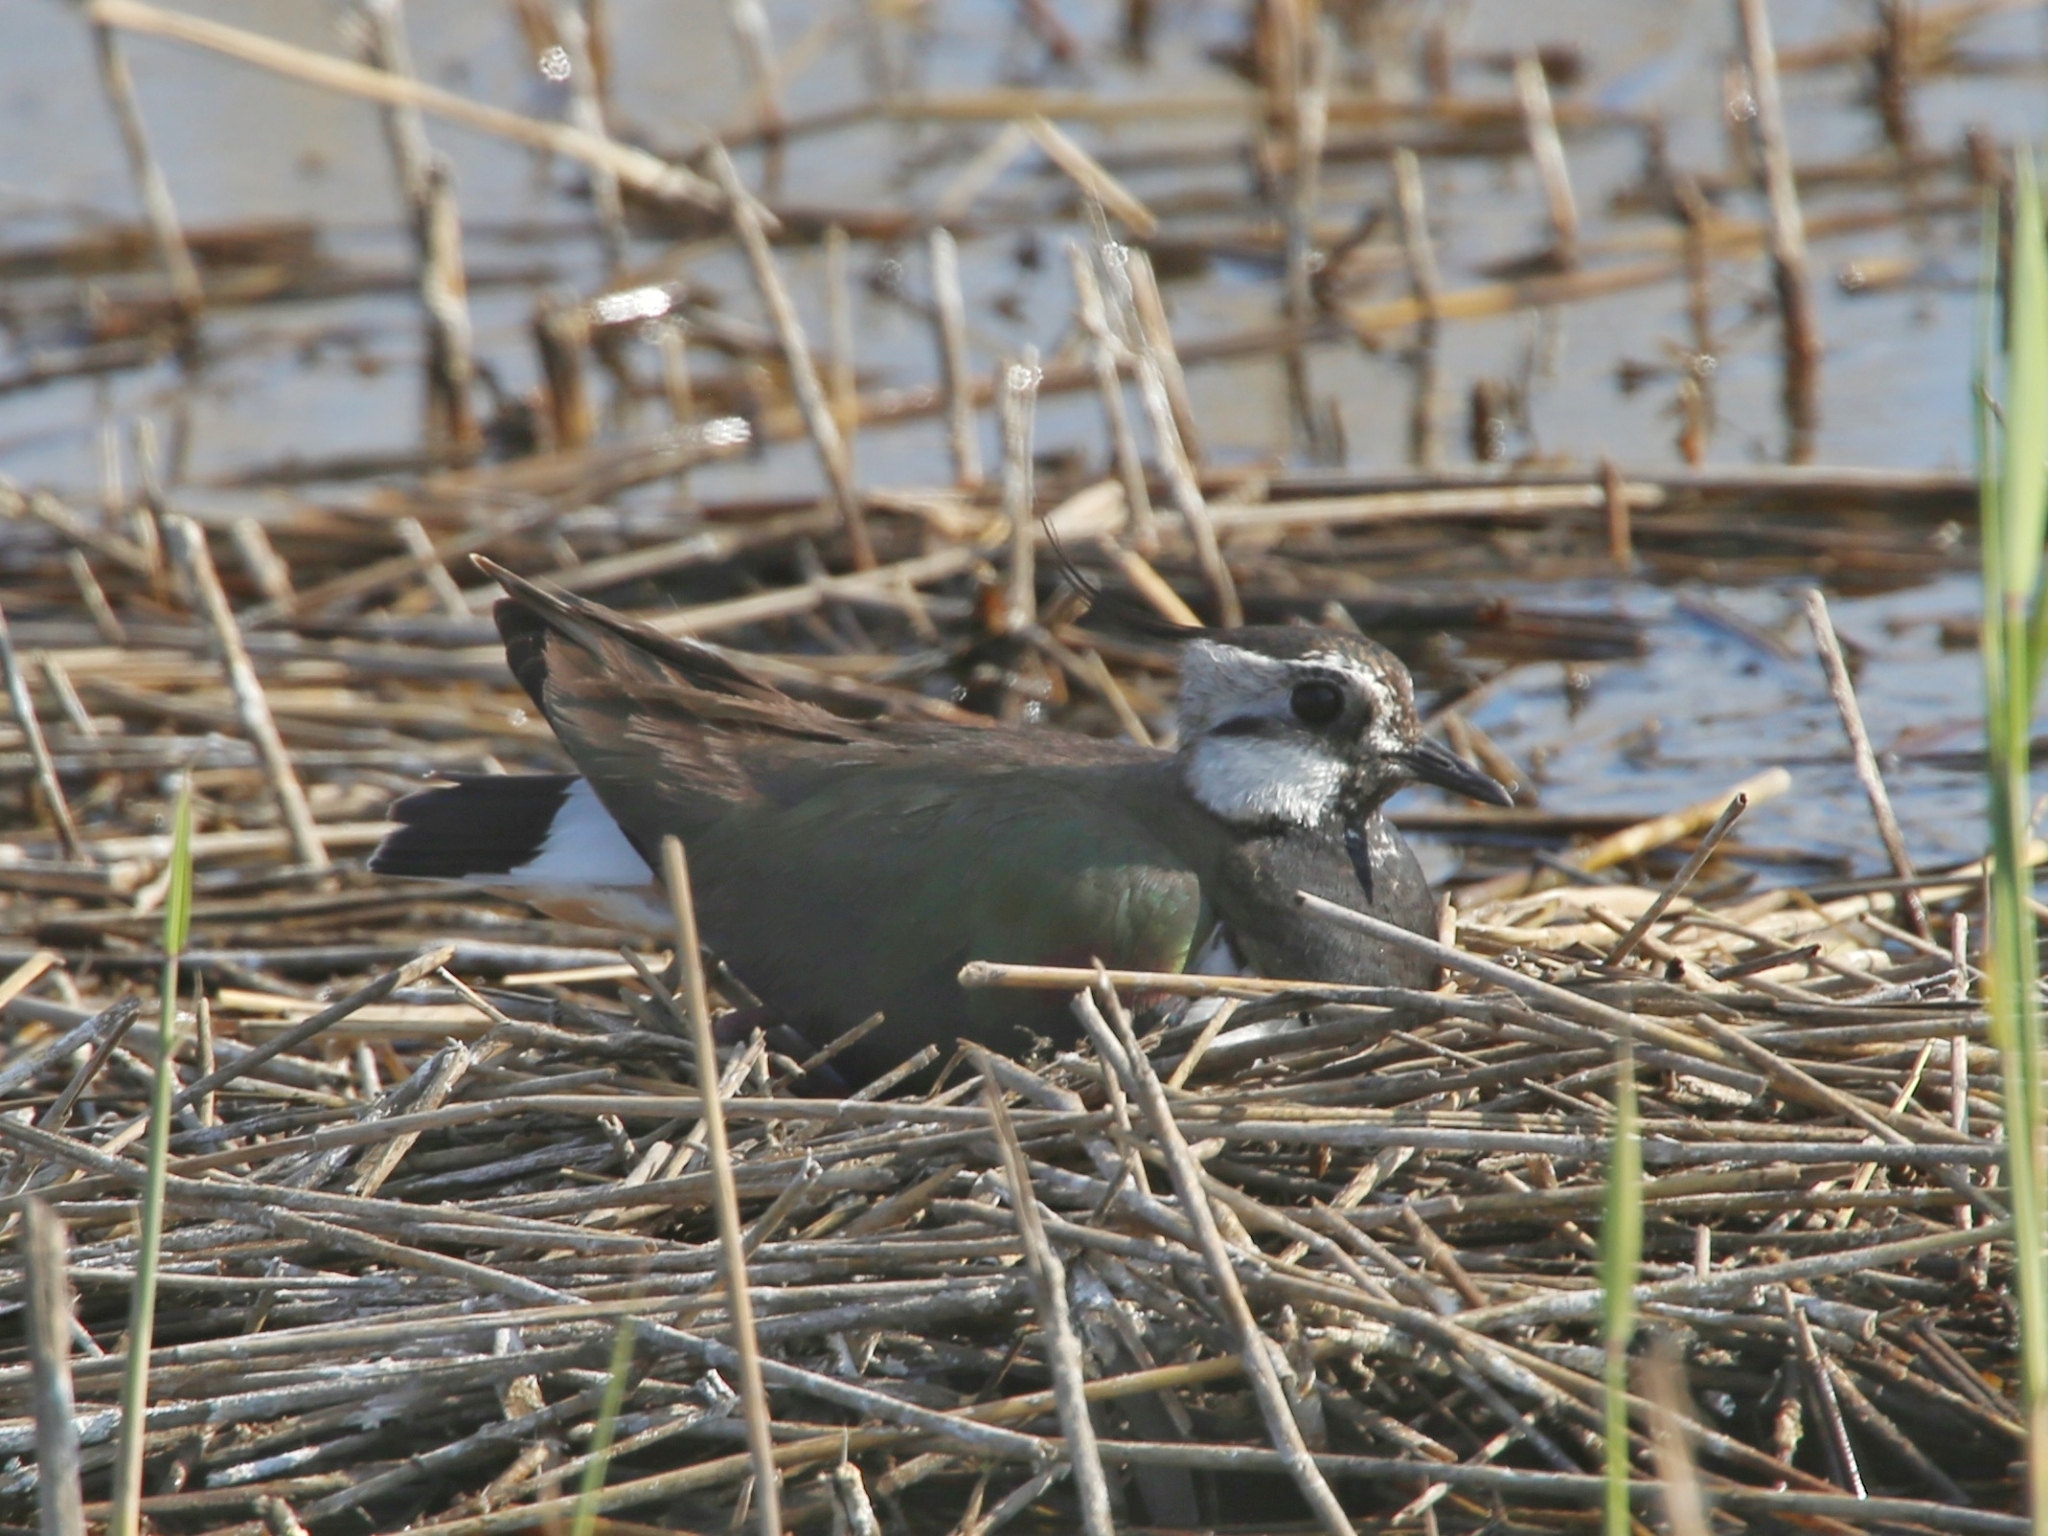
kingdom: Animalia
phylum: Chordata
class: Aves
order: Charadriiformes
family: Charadriidae
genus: Vanellus
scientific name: Vanellus vanellus
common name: Northern lapwing
